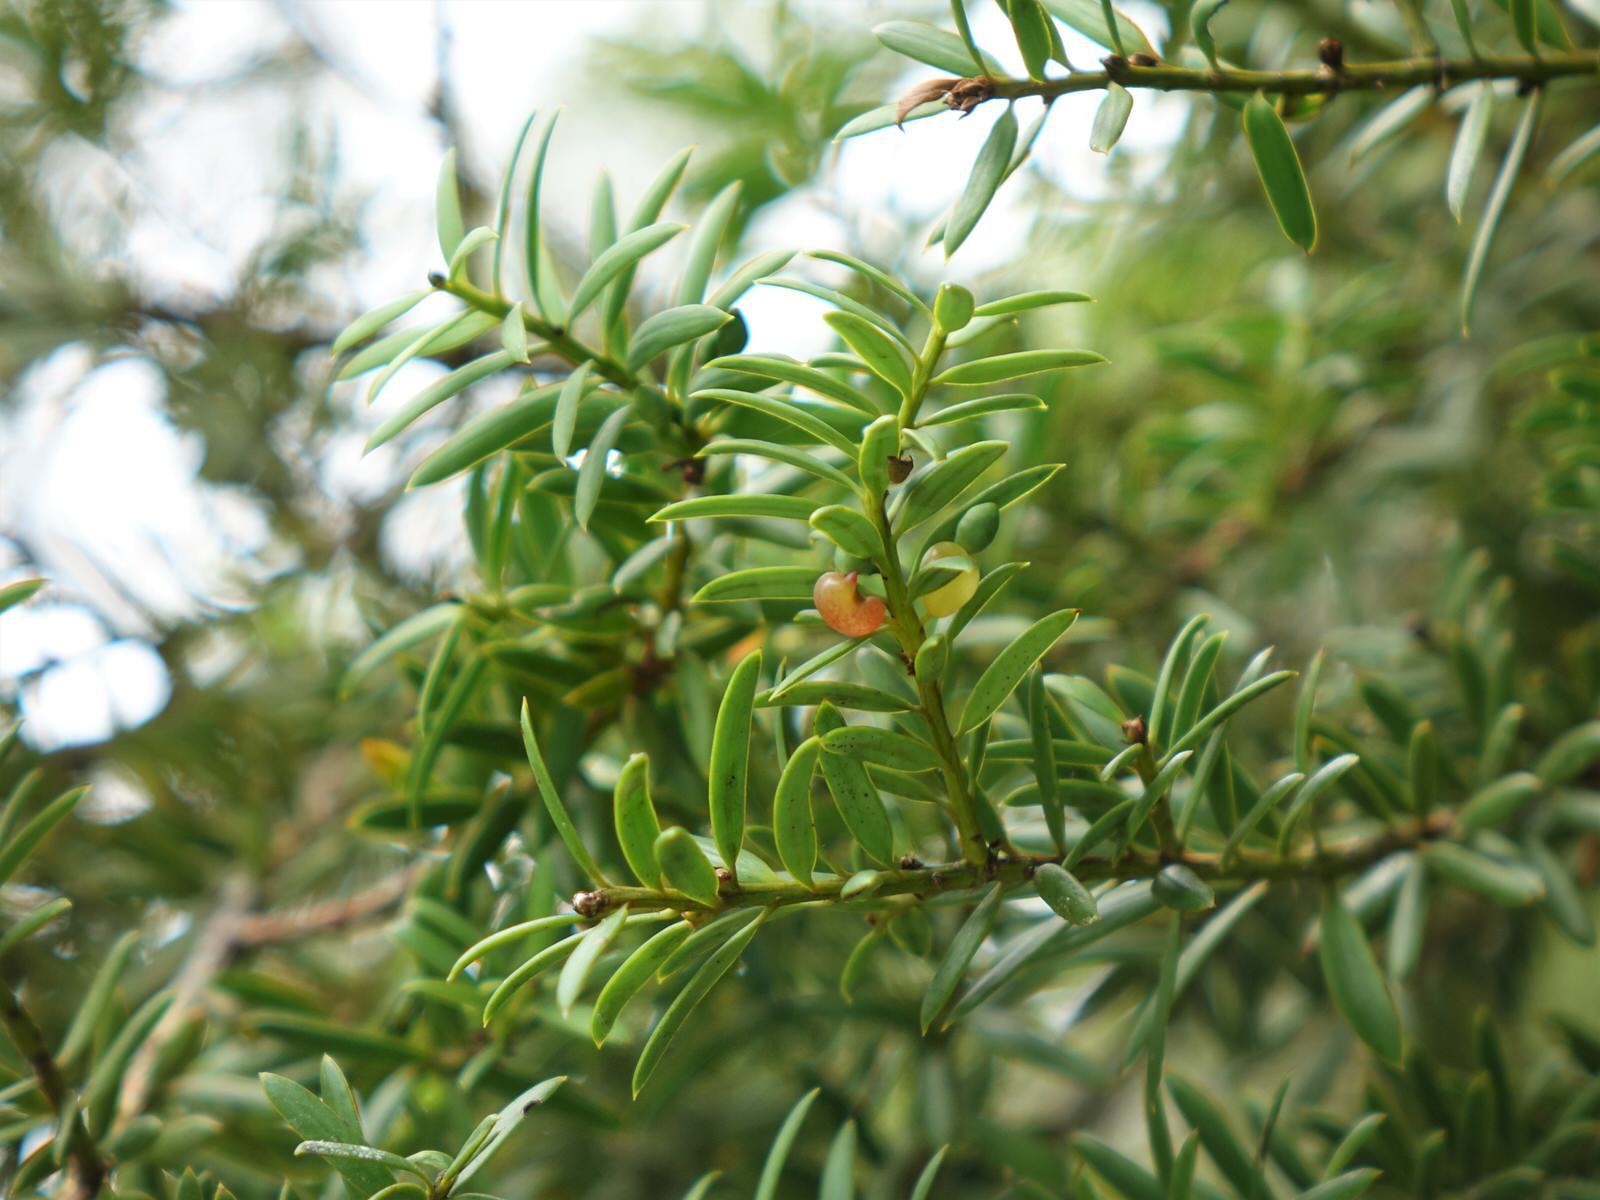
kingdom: Plantae
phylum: Tracheophyta
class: Pinopsida
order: Pinales
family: Podocarpaceae
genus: Podocarpus
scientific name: Podocarpus totara
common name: Totara
